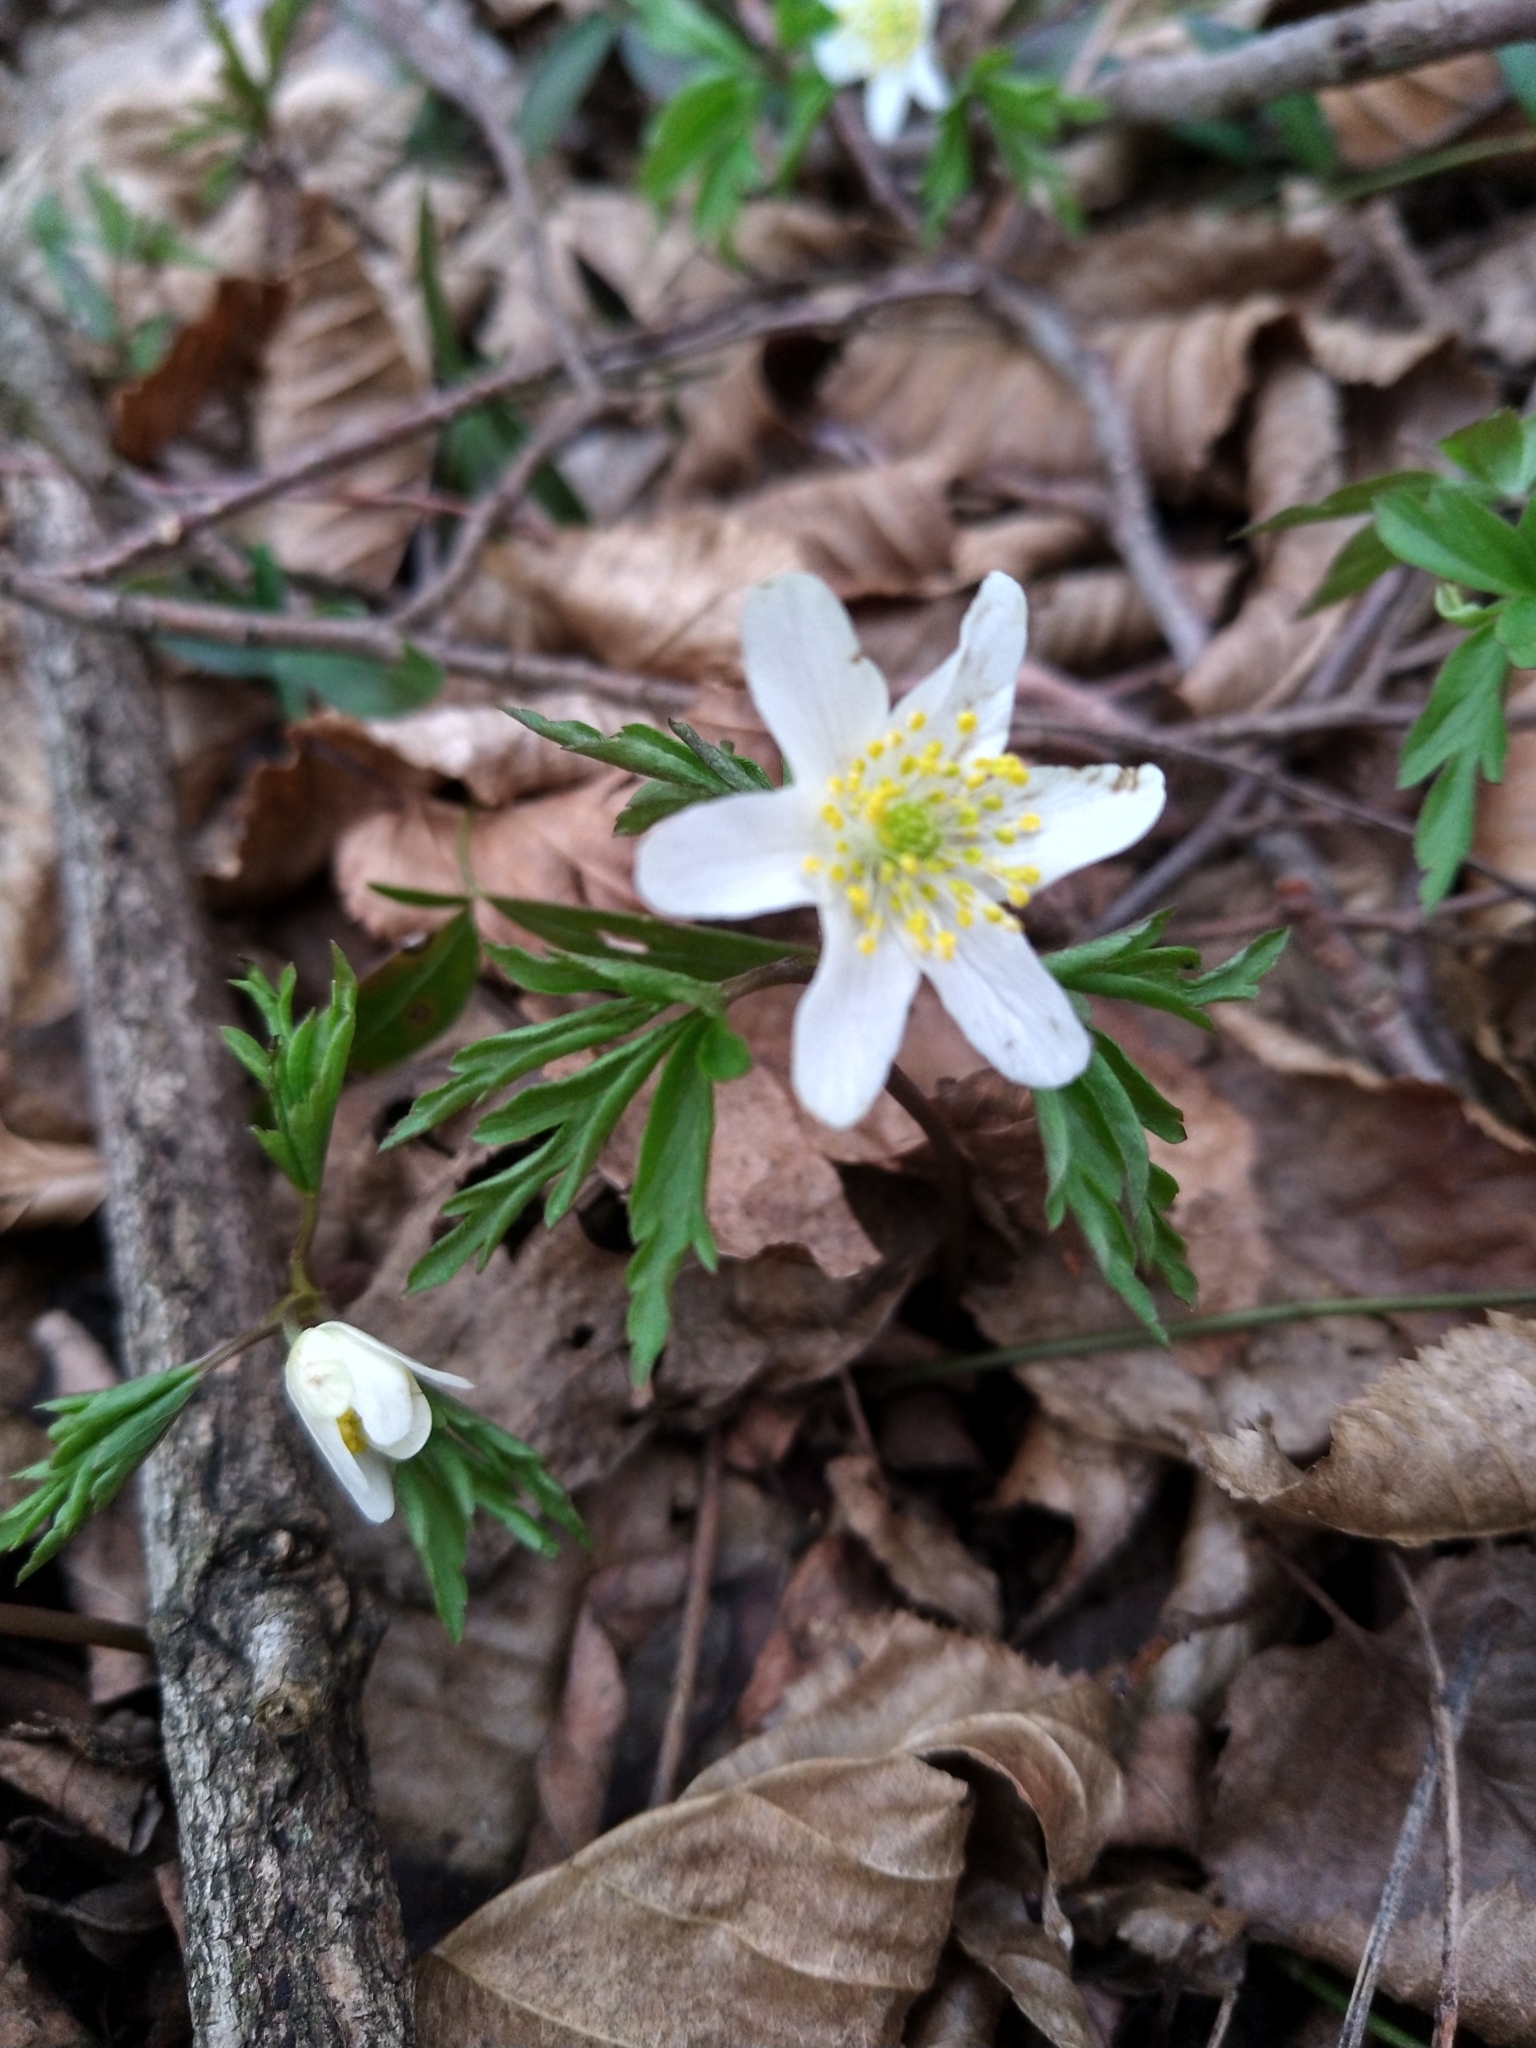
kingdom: Plantae
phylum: Tracheophyta
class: Magnoliopsida
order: Ranunculales
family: Ranunculaceae
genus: Anemone
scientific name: Anemone nemorosa
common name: Wood anemone
